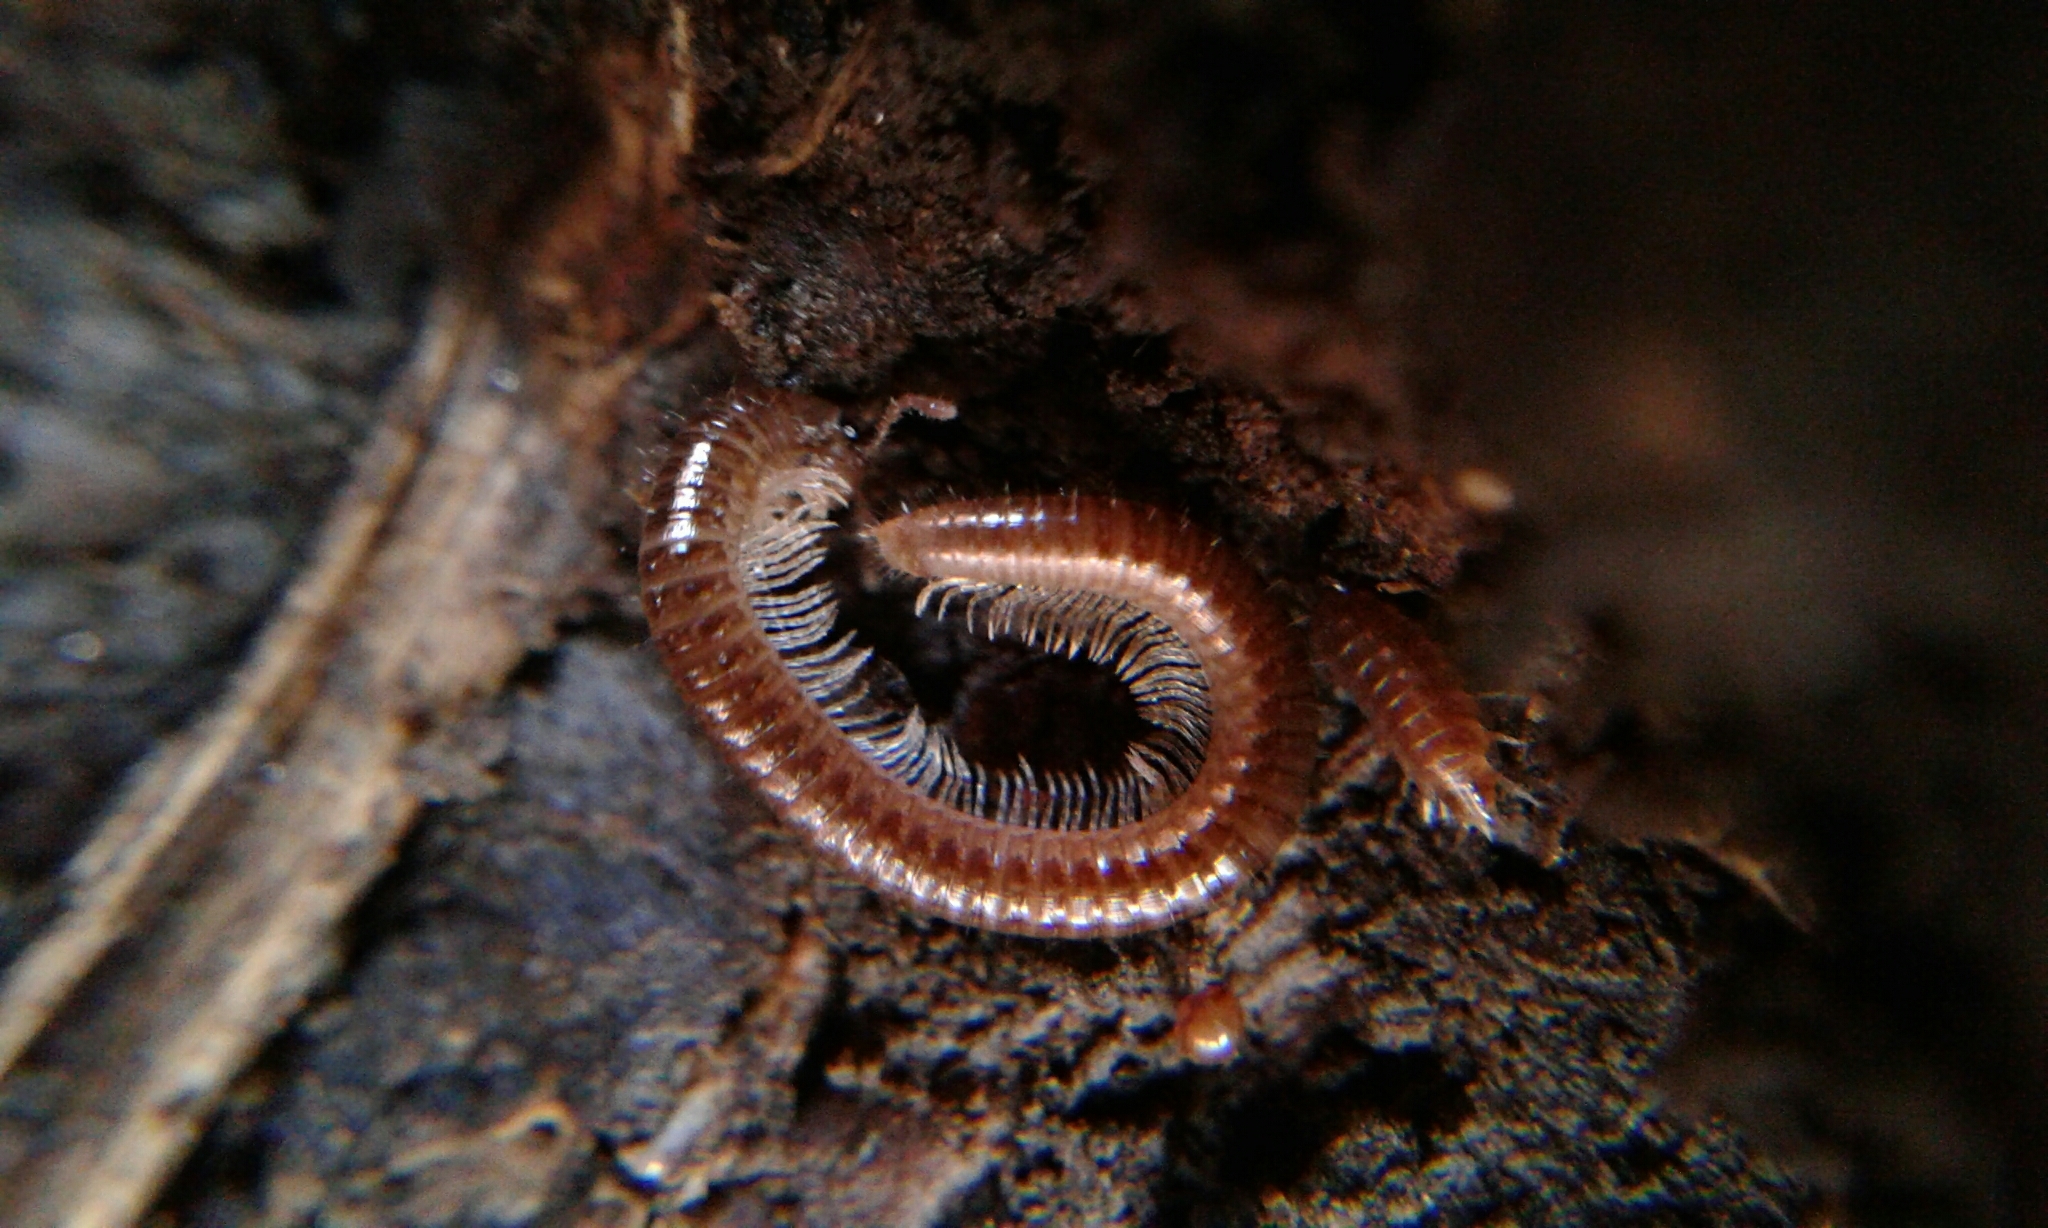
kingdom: Animalia
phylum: Arthropoda
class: Diplopoda
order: Julida
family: Julidae
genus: Ophyiulus
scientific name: Ophyiulus pilosus
